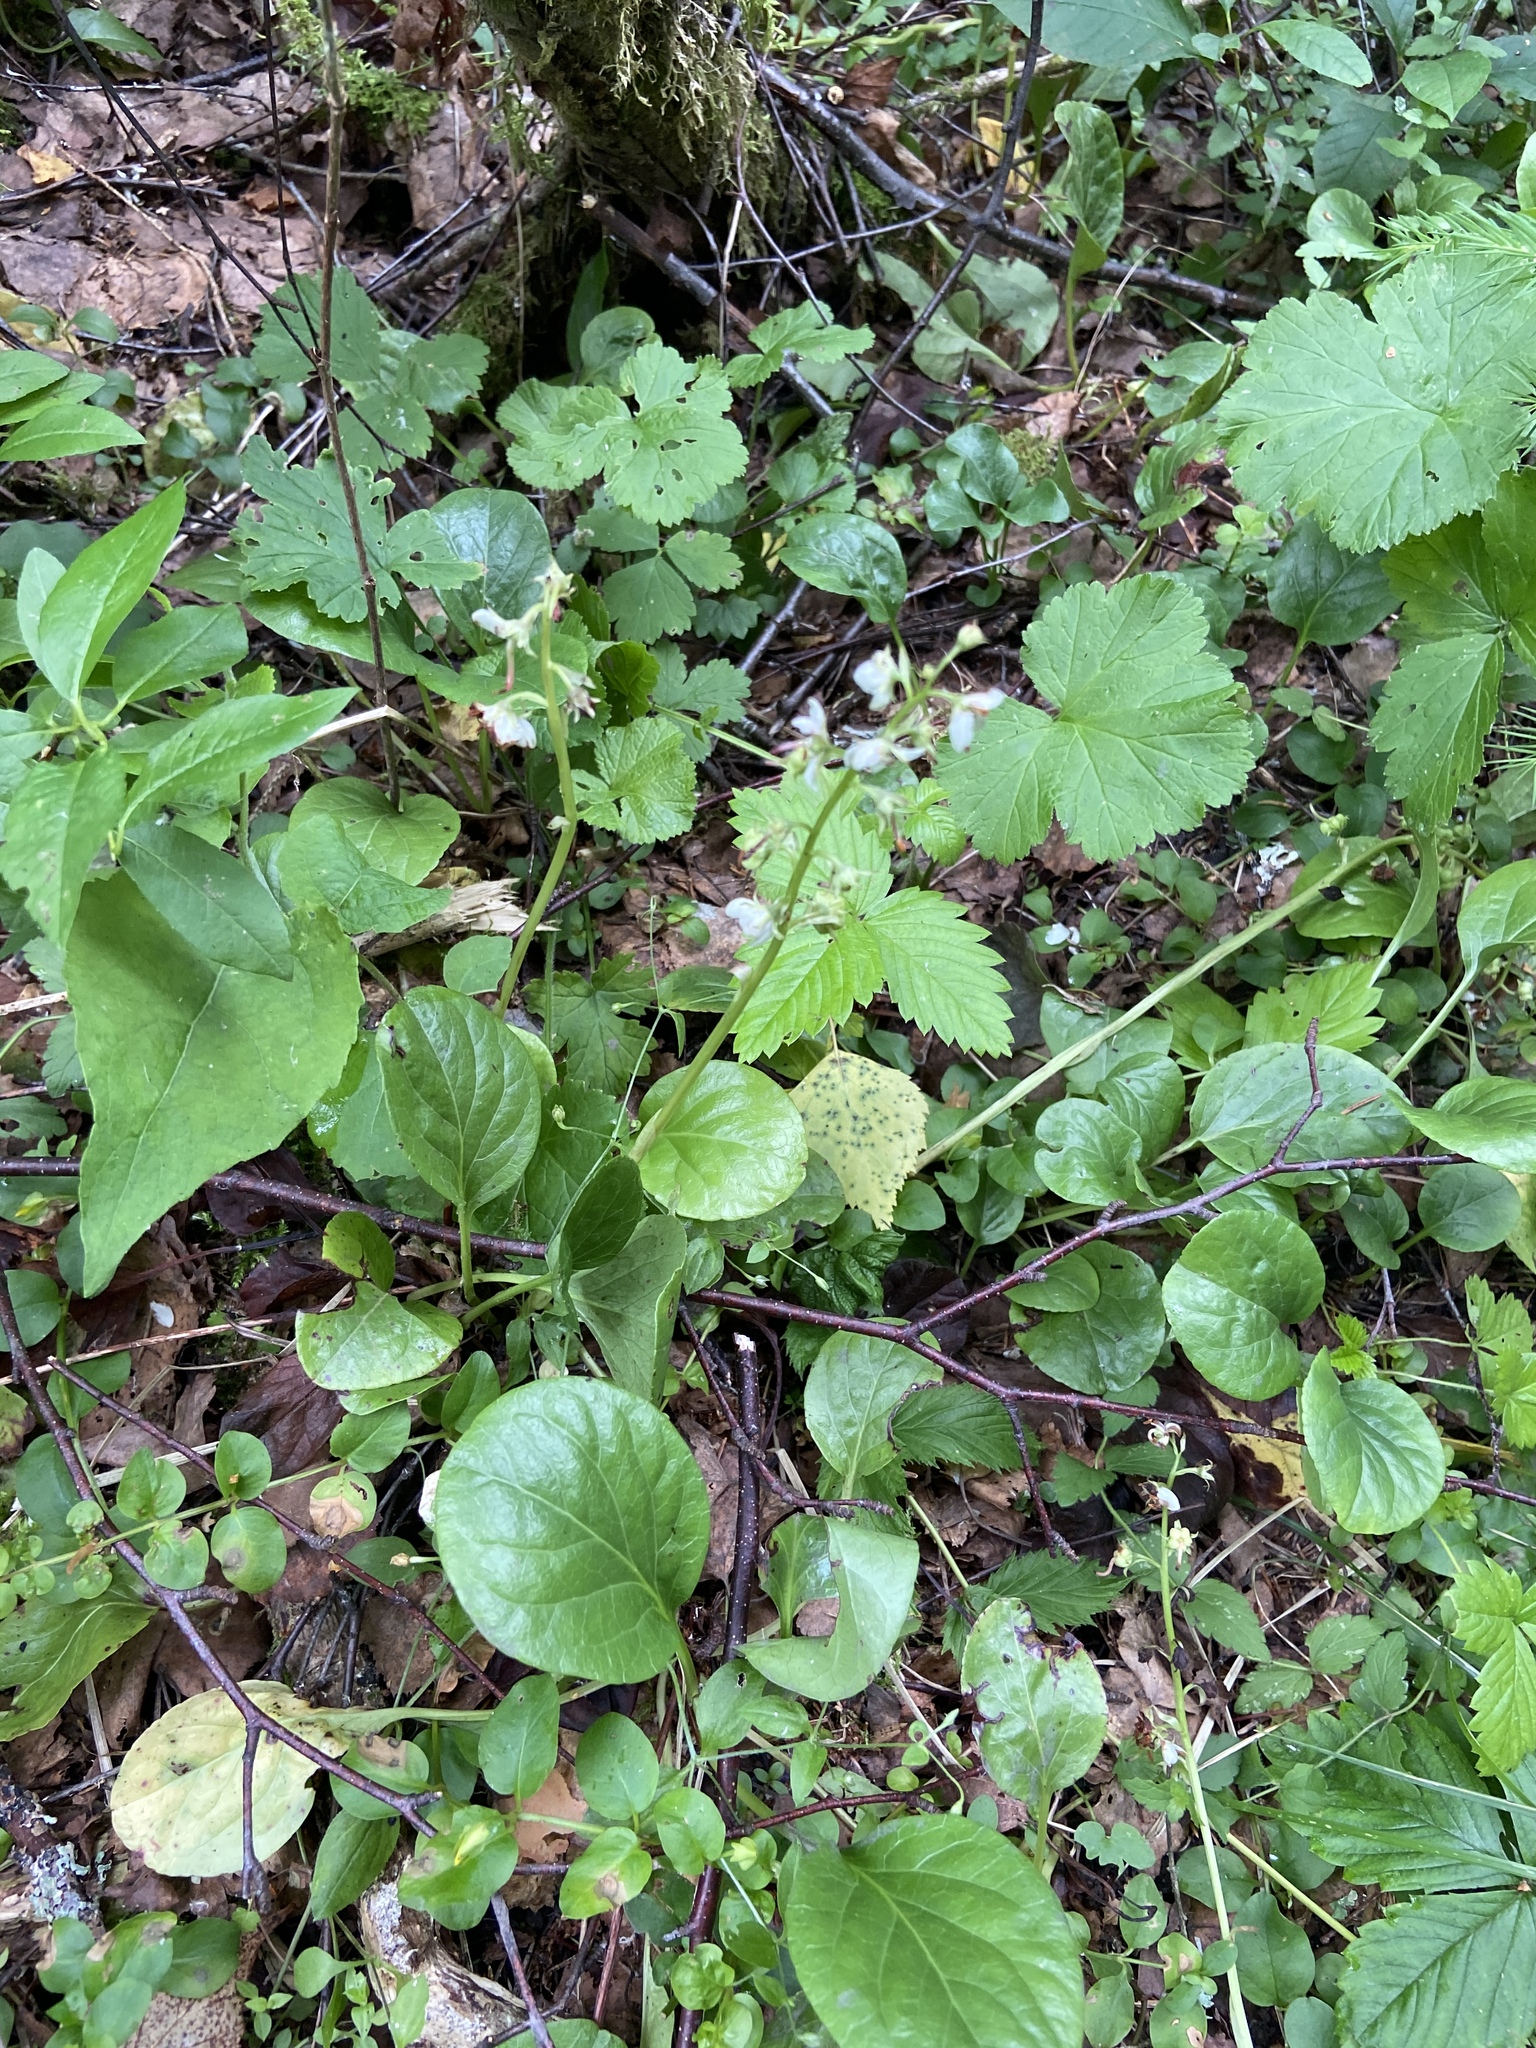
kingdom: Plantae
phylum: Tracheophyta
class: Magnoliopsida
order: Ericales
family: Ericaceae
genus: Pyrola
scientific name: Pyrola rotundifolia
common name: Round-leaved wintergreen
